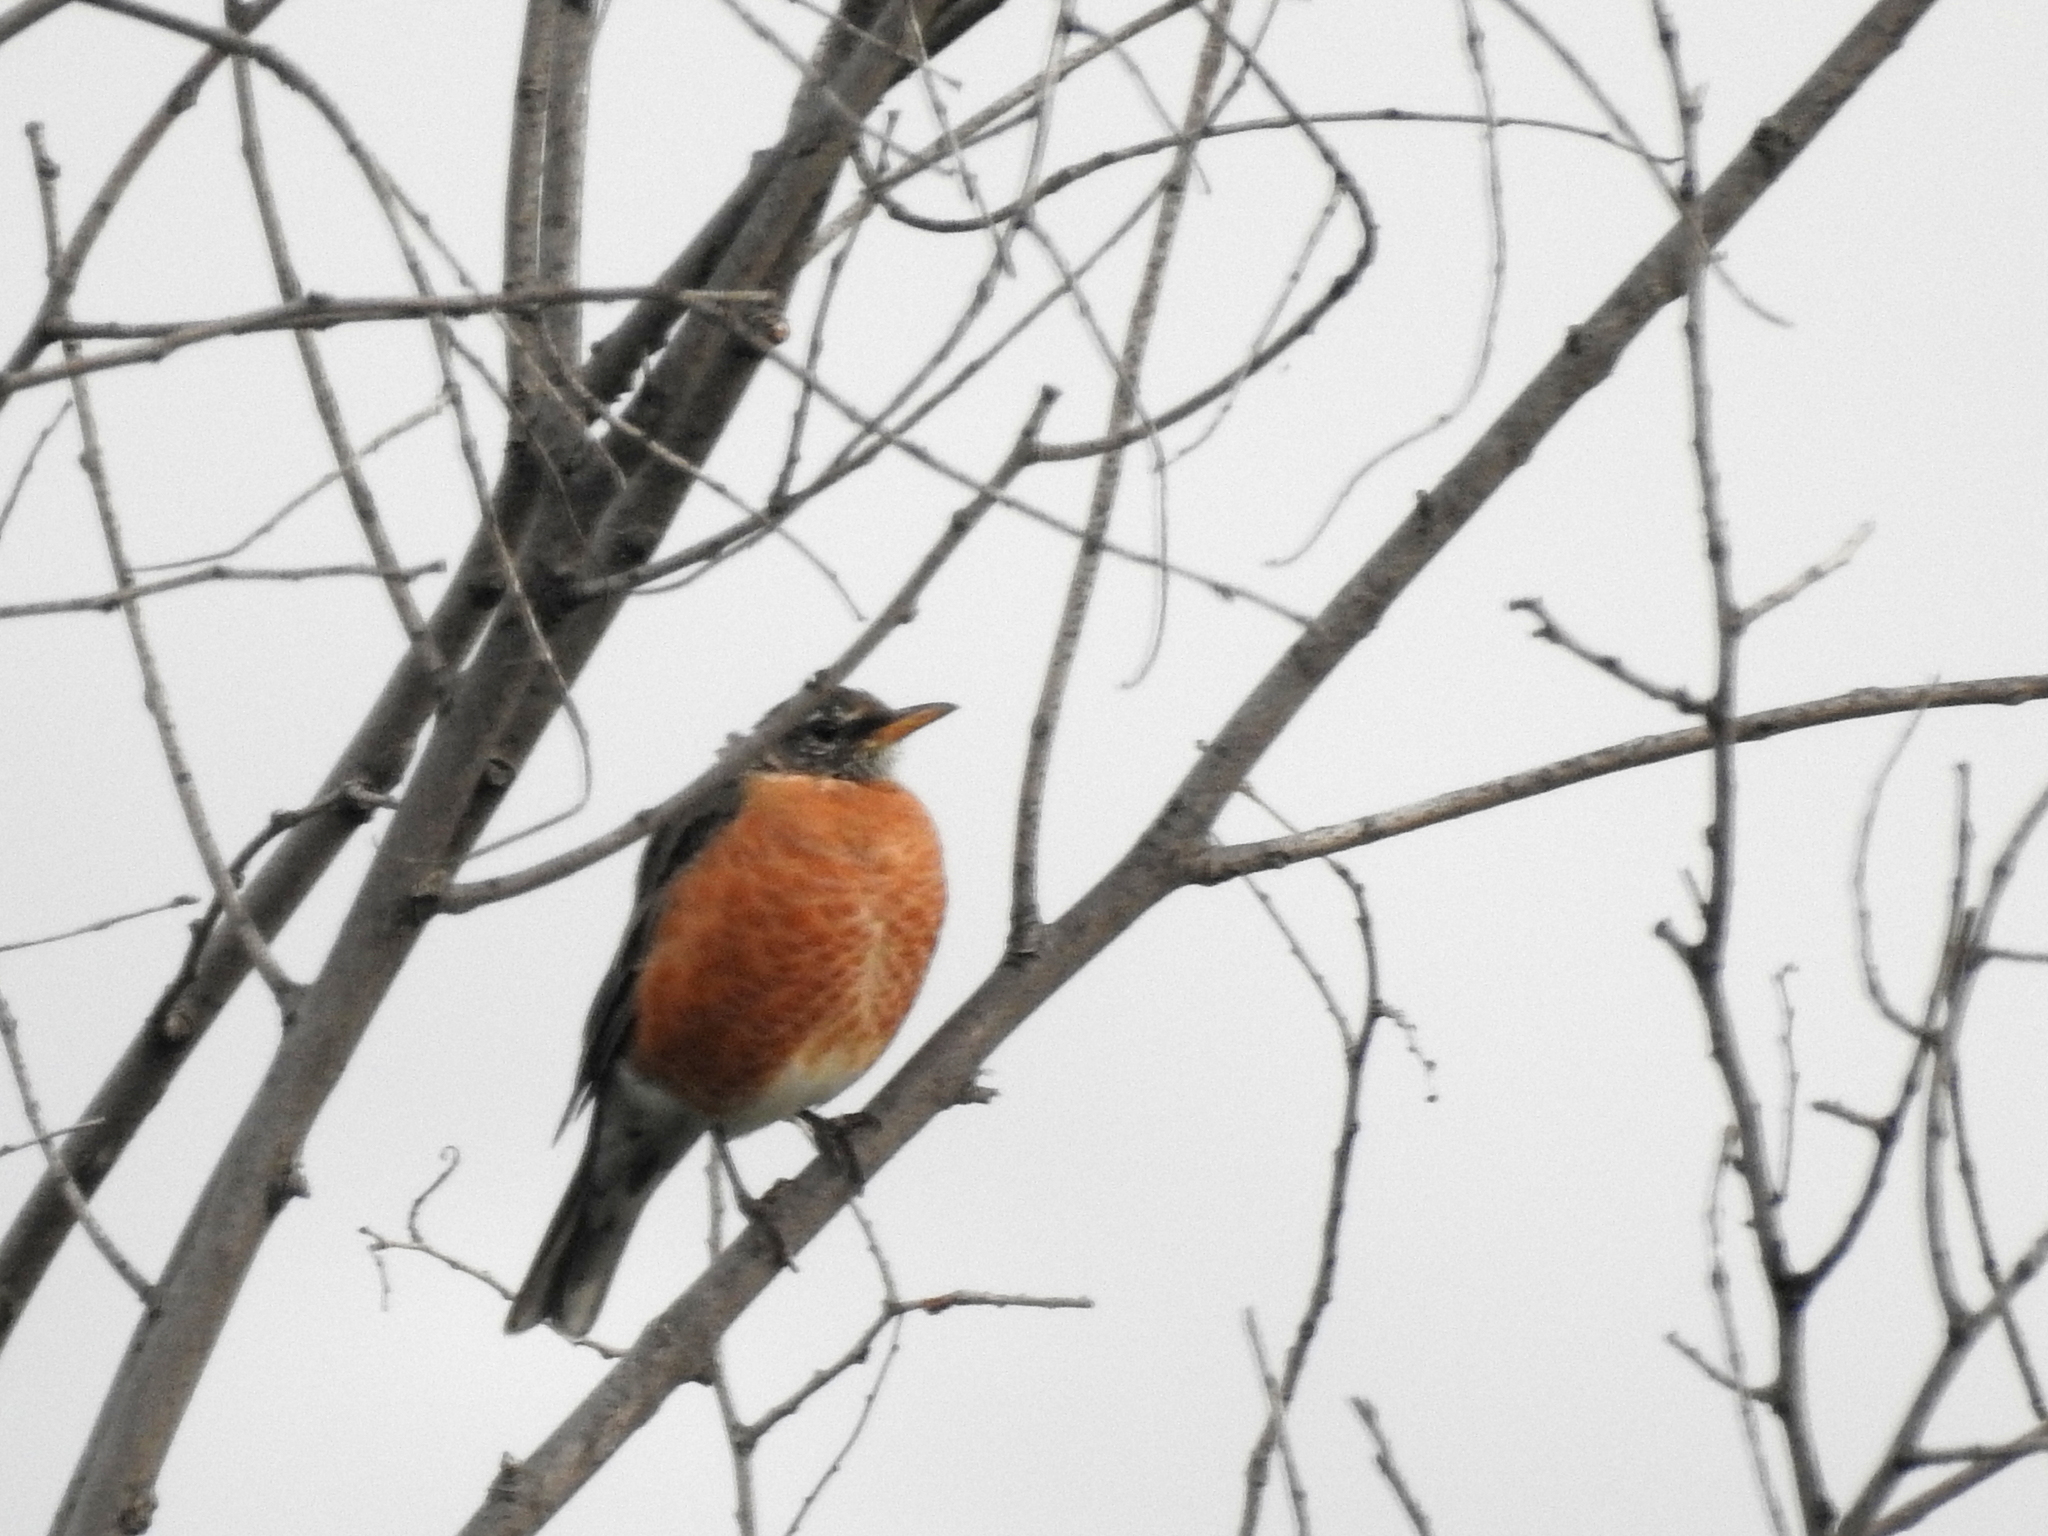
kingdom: Animalia
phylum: Chordata
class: Aves
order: Passeriformes
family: Turdidae
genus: Turdus
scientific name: Turdus migratorius
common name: American robin
